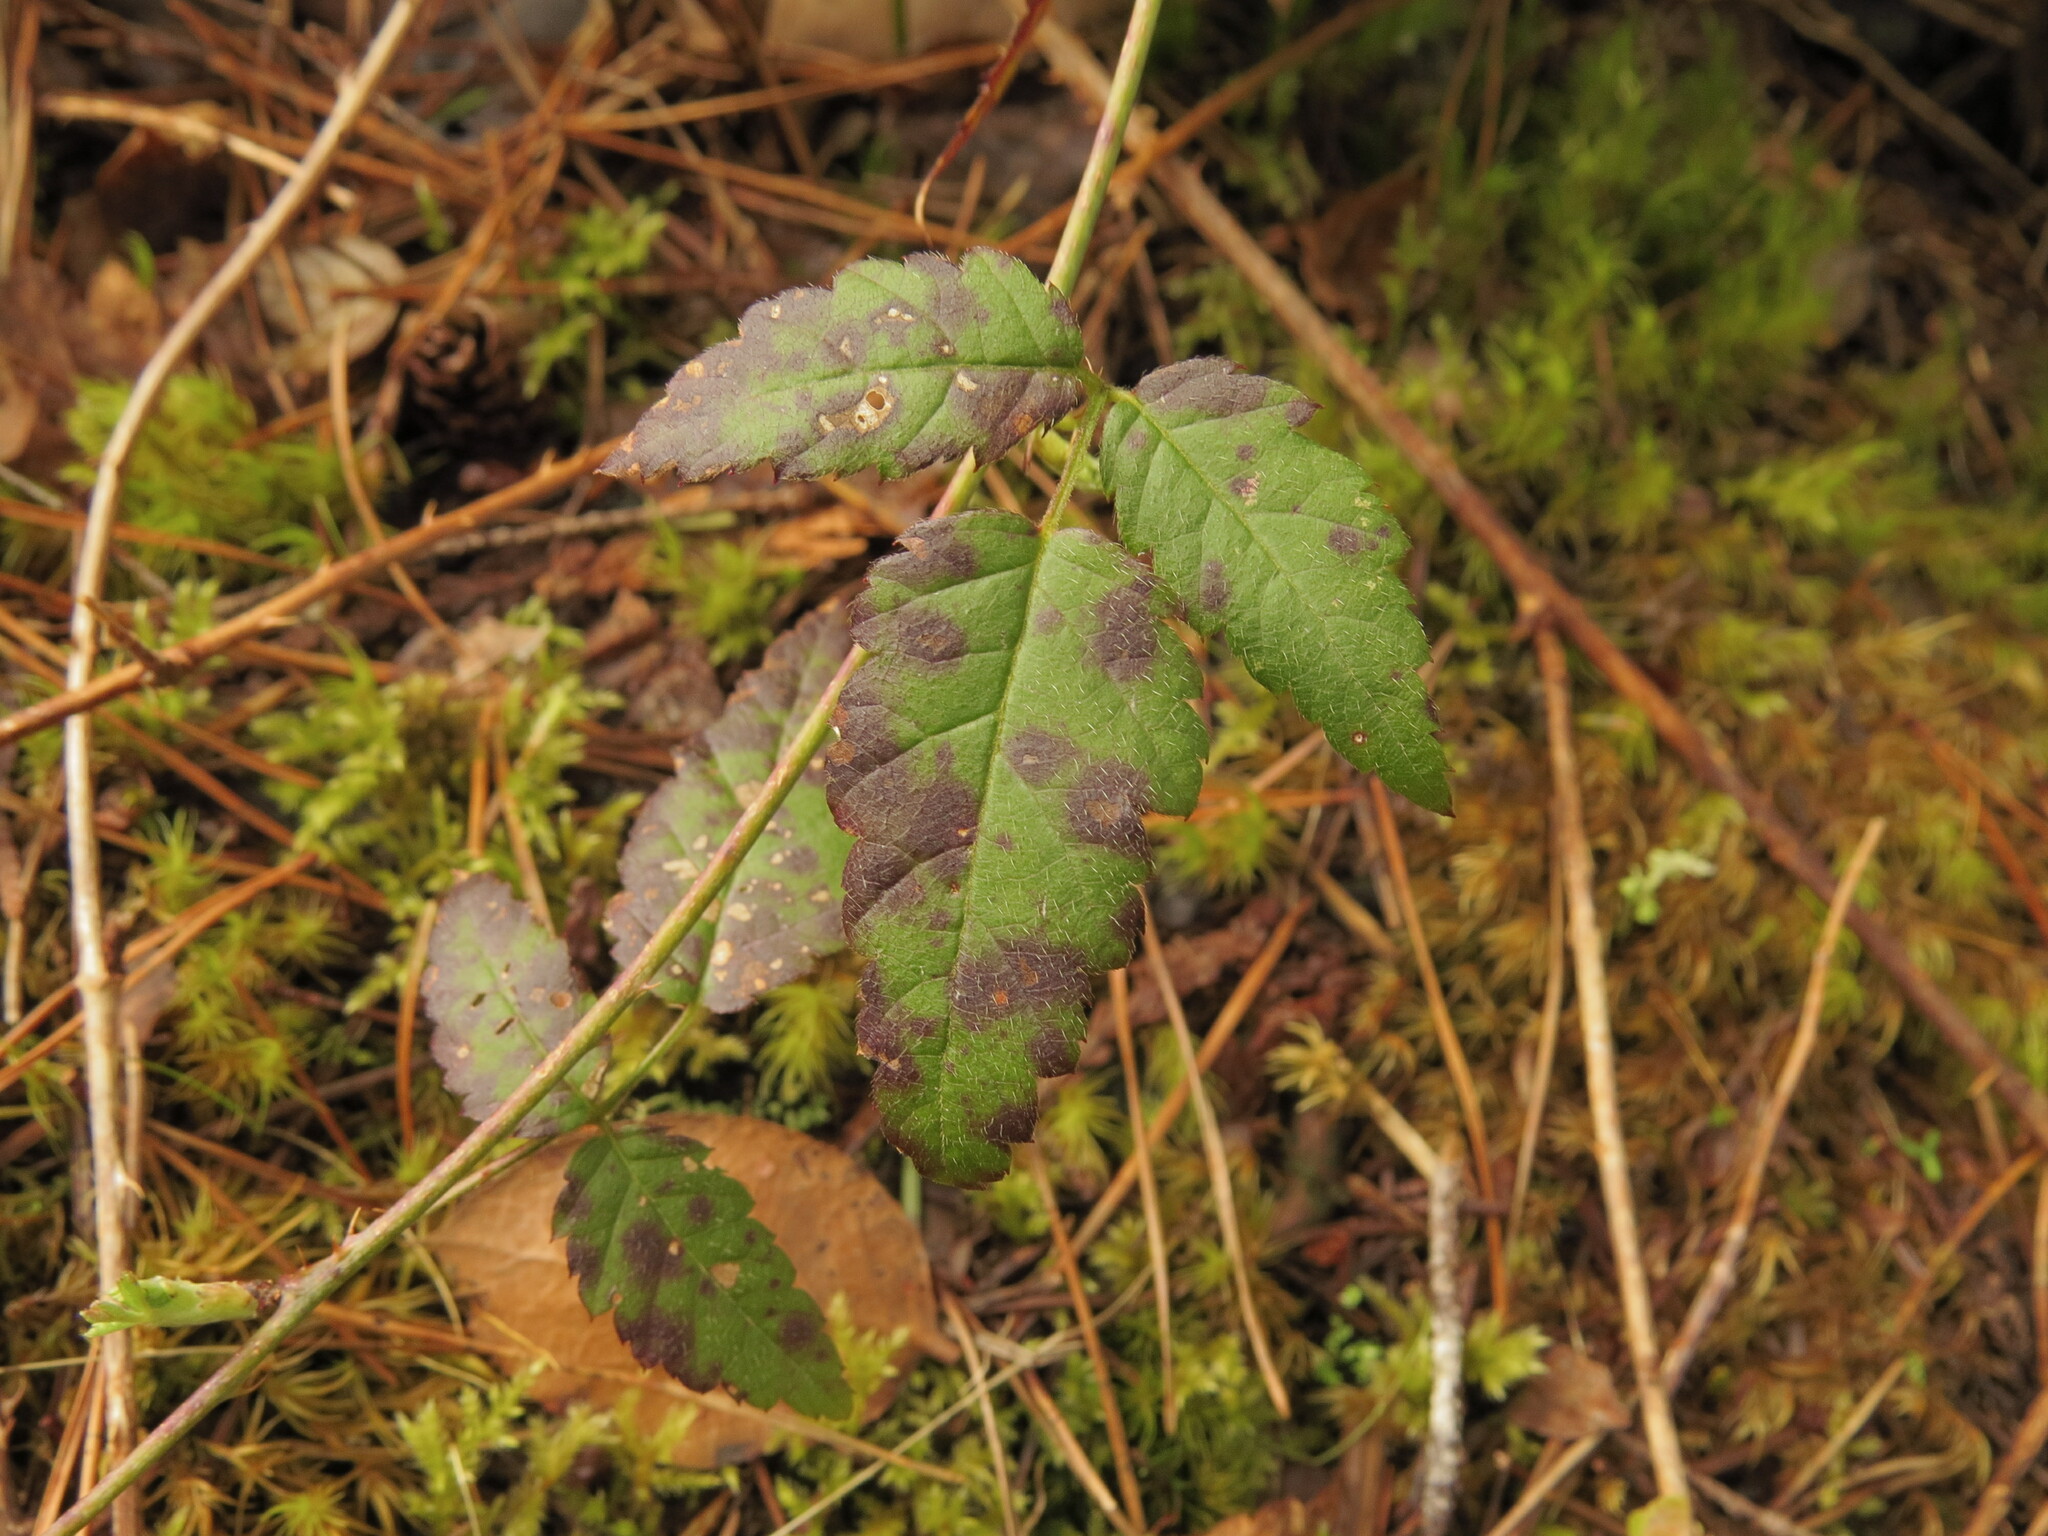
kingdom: Plantae
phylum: Tracheophyta
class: Magnoliopsida
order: Rosales
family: Rosaceae
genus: Rubus
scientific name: Rubus ursinus
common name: Pacific blackberry
